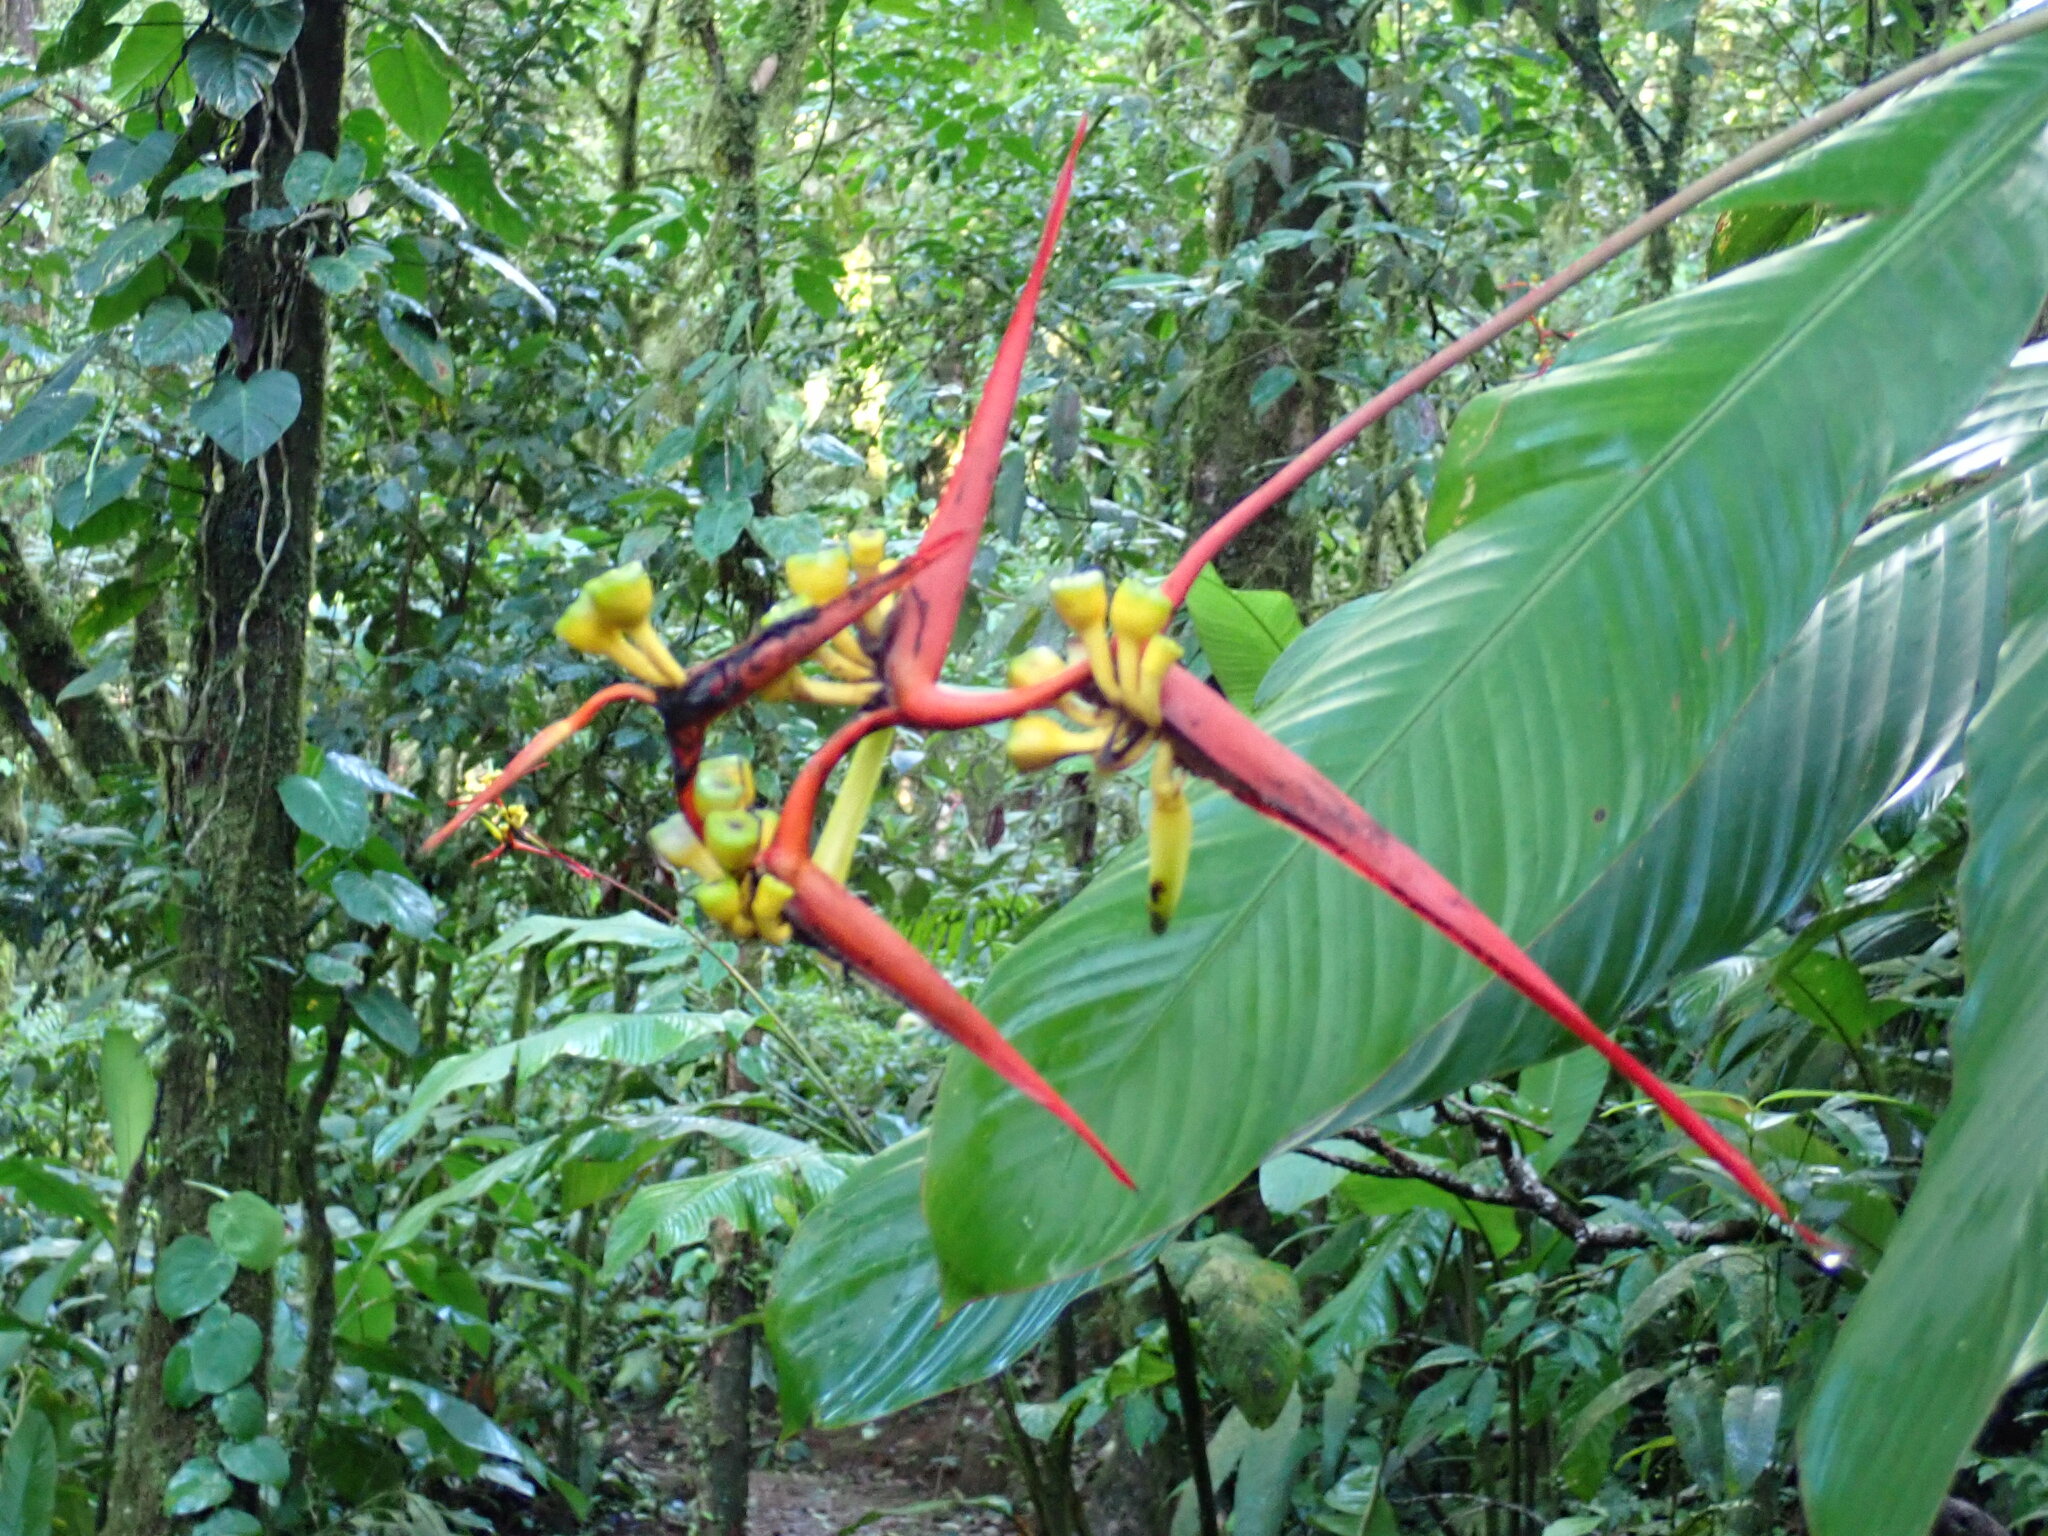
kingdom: Plantae
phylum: Tracheophyta
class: Liliopsida
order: Zingiberales
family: Heliconiaceae
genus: Heliconia
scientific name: Heliconia vaginalis
